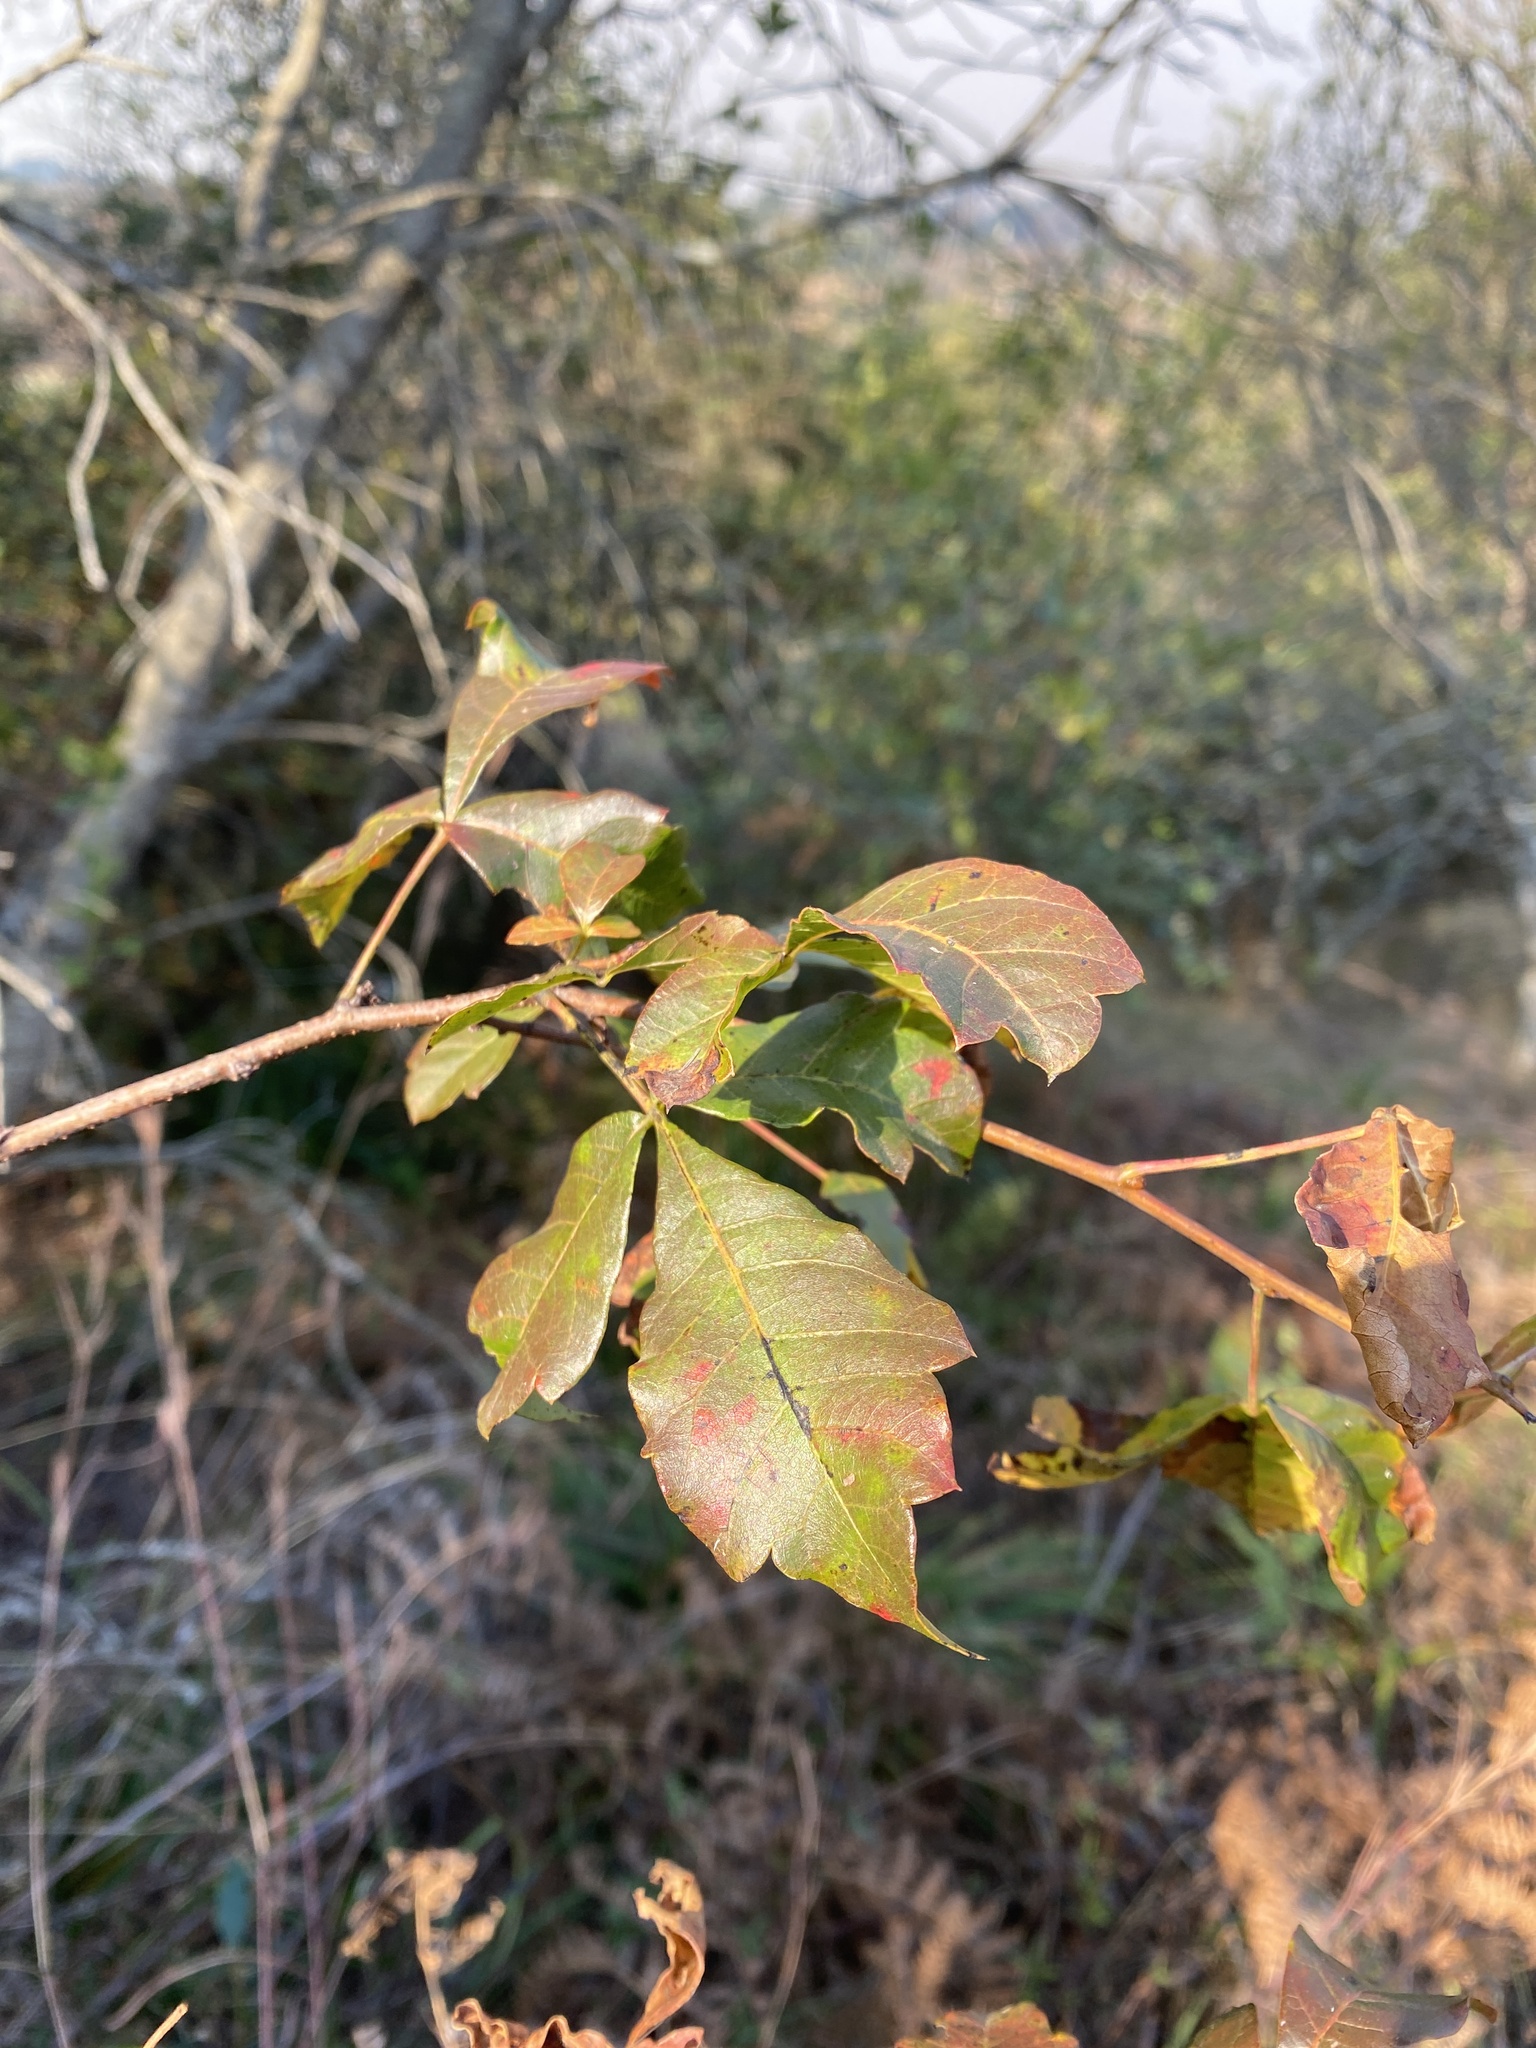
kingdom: Plantae
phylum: Tracheophyta
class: Magnoliopsida
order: Sapindales
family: Anacardiaceae
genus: Searsia
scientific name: Searsia dentata
